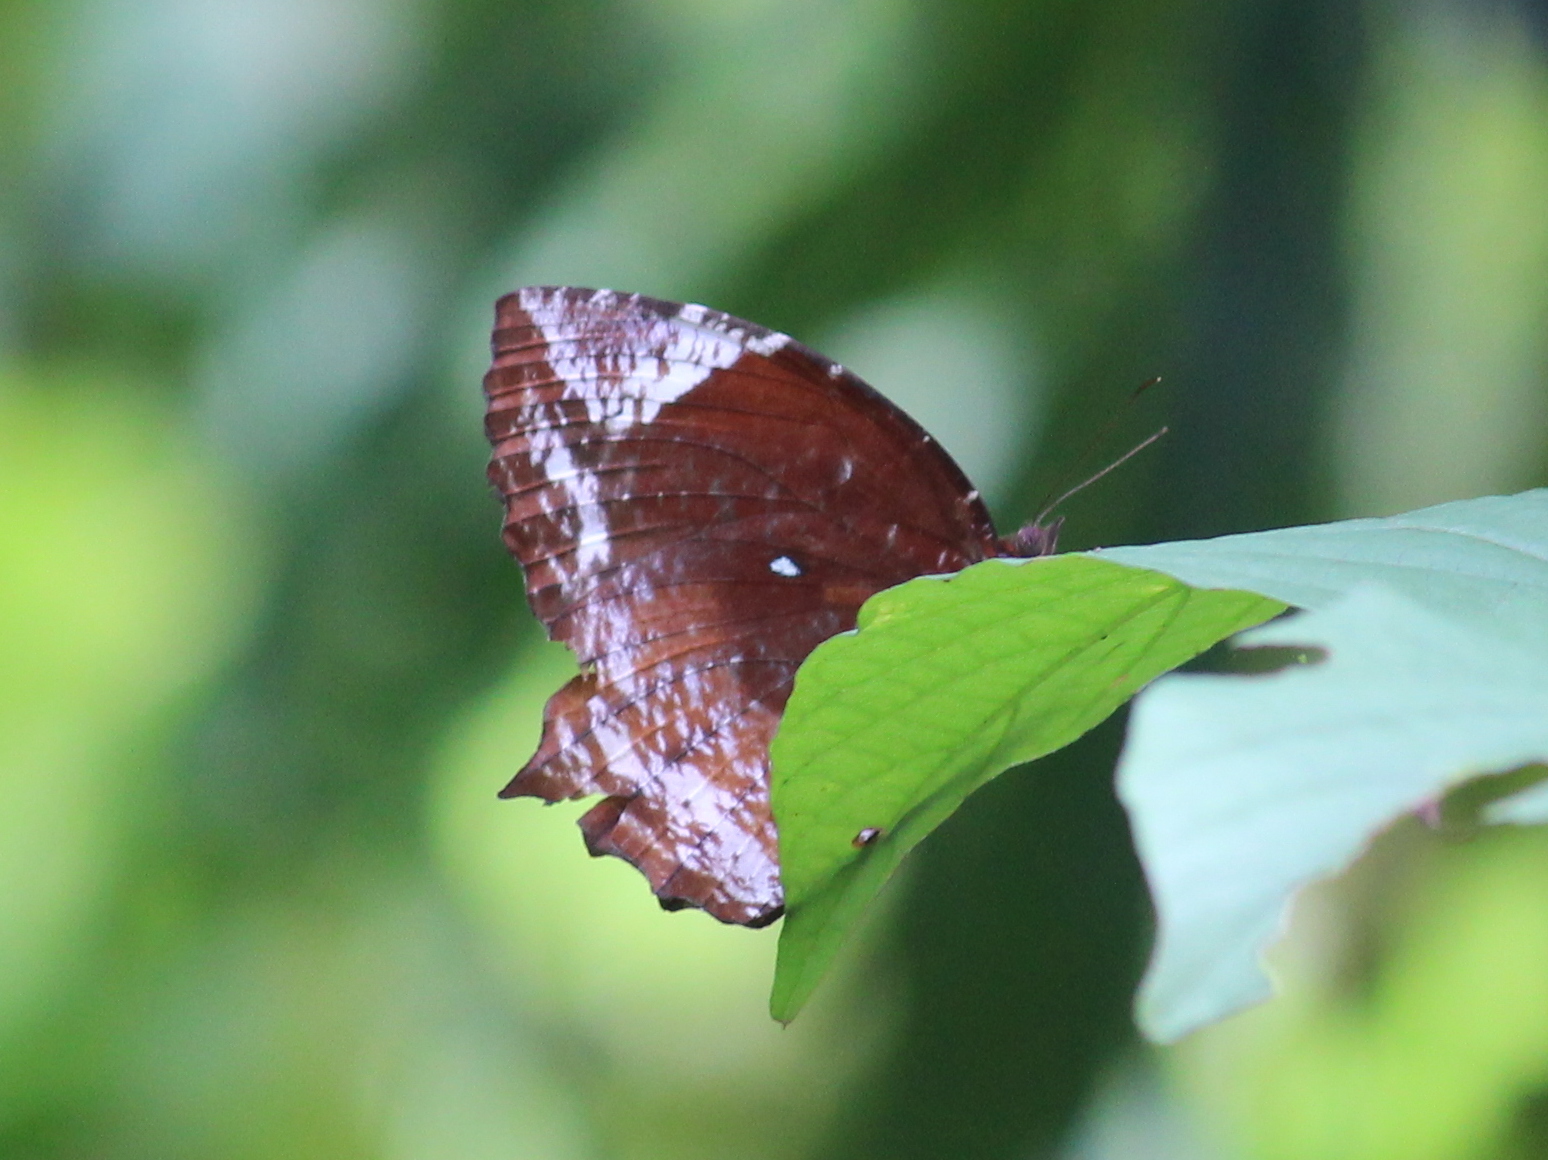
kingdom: Animalia
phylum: Arthropoda
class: Insecta
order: Lepidoptera
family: Nymphalidae
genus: Elymnias
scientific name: Elymnias caudata
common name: Tailed palmfly
